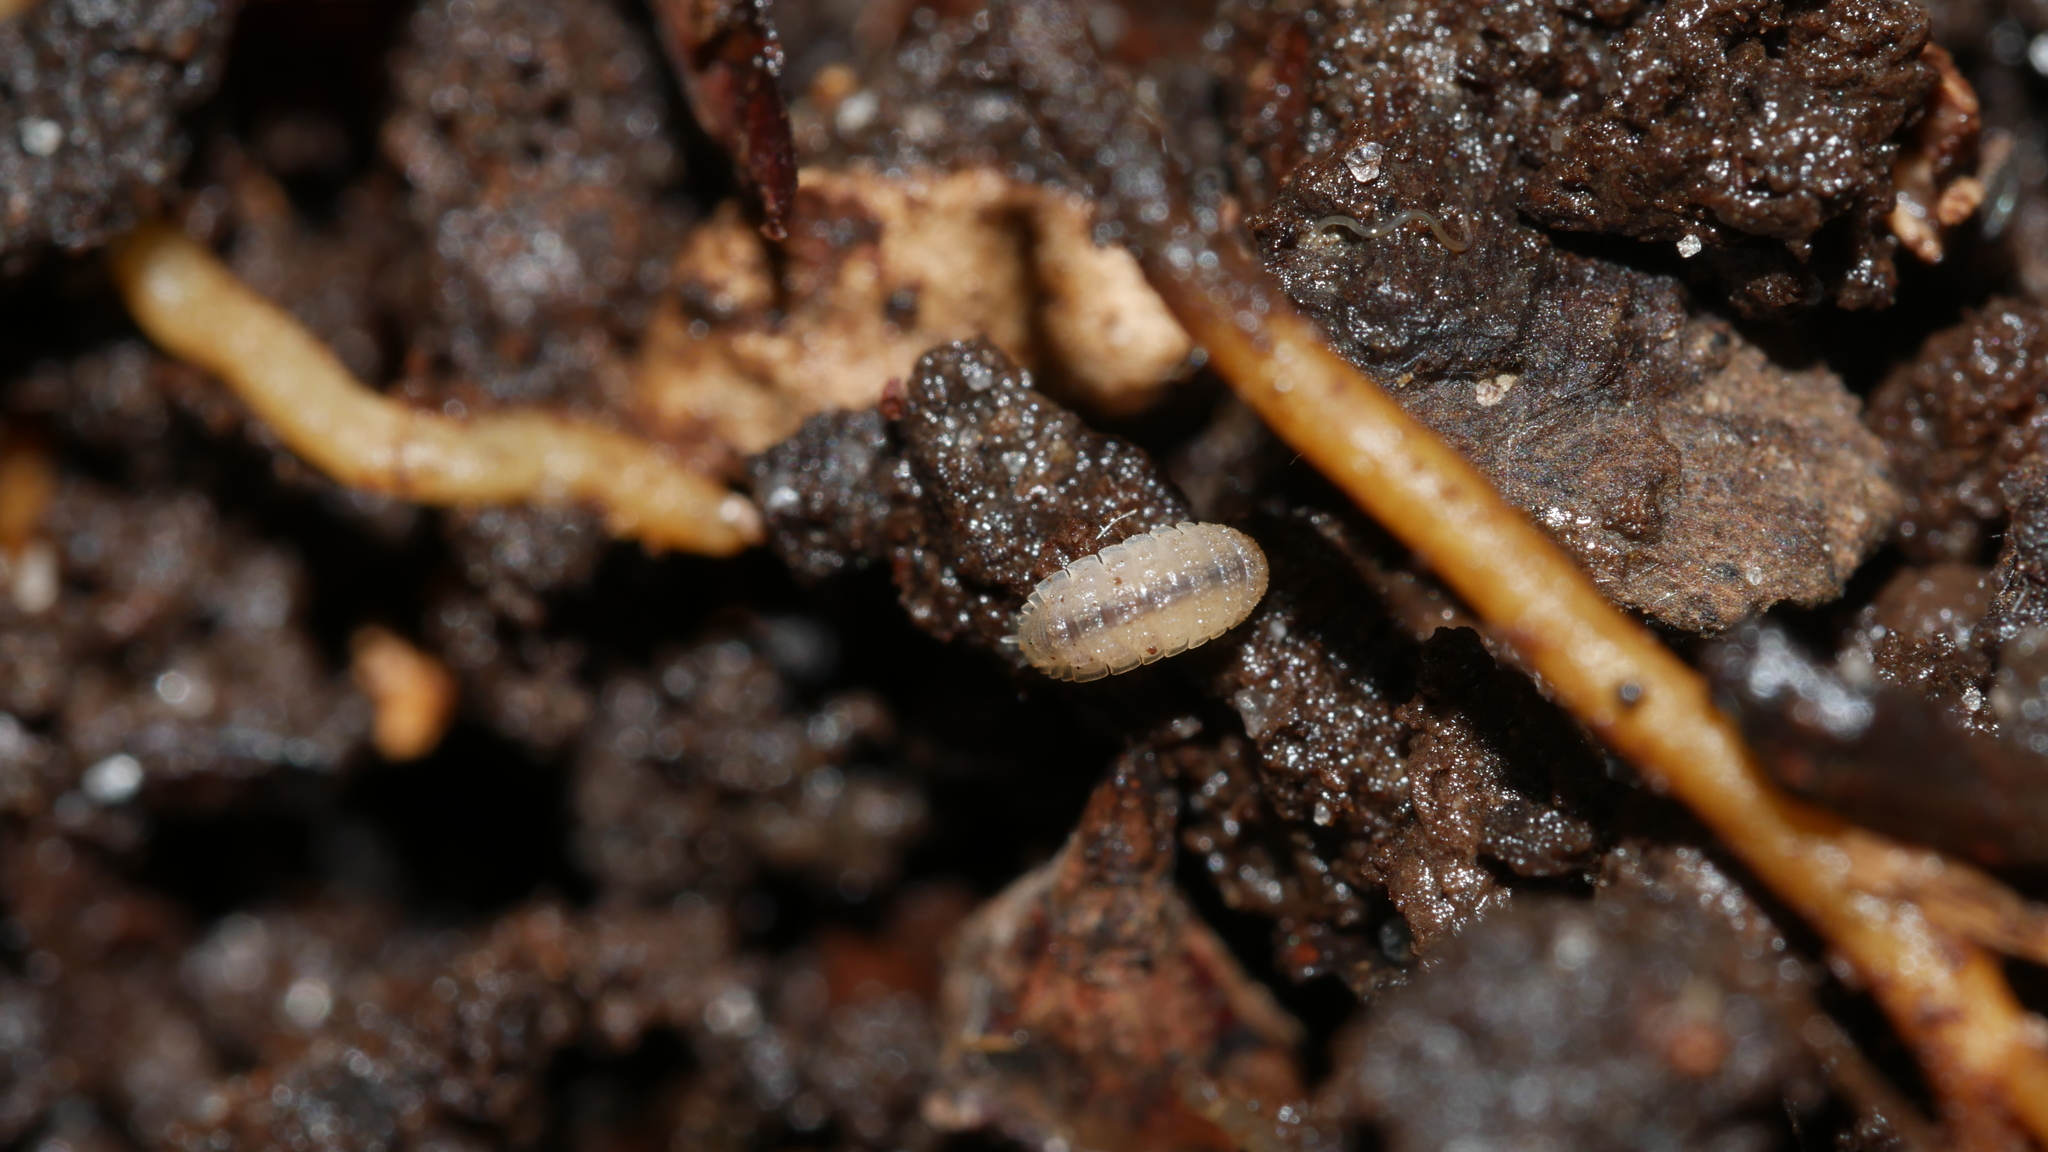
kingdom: Animalia
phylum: Arthropoda
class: Malacostraca
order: Isopoda
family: Trichoniscidae
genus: Haplophthalmus
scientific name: Haplophthalmus danicus
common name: Pillbug
